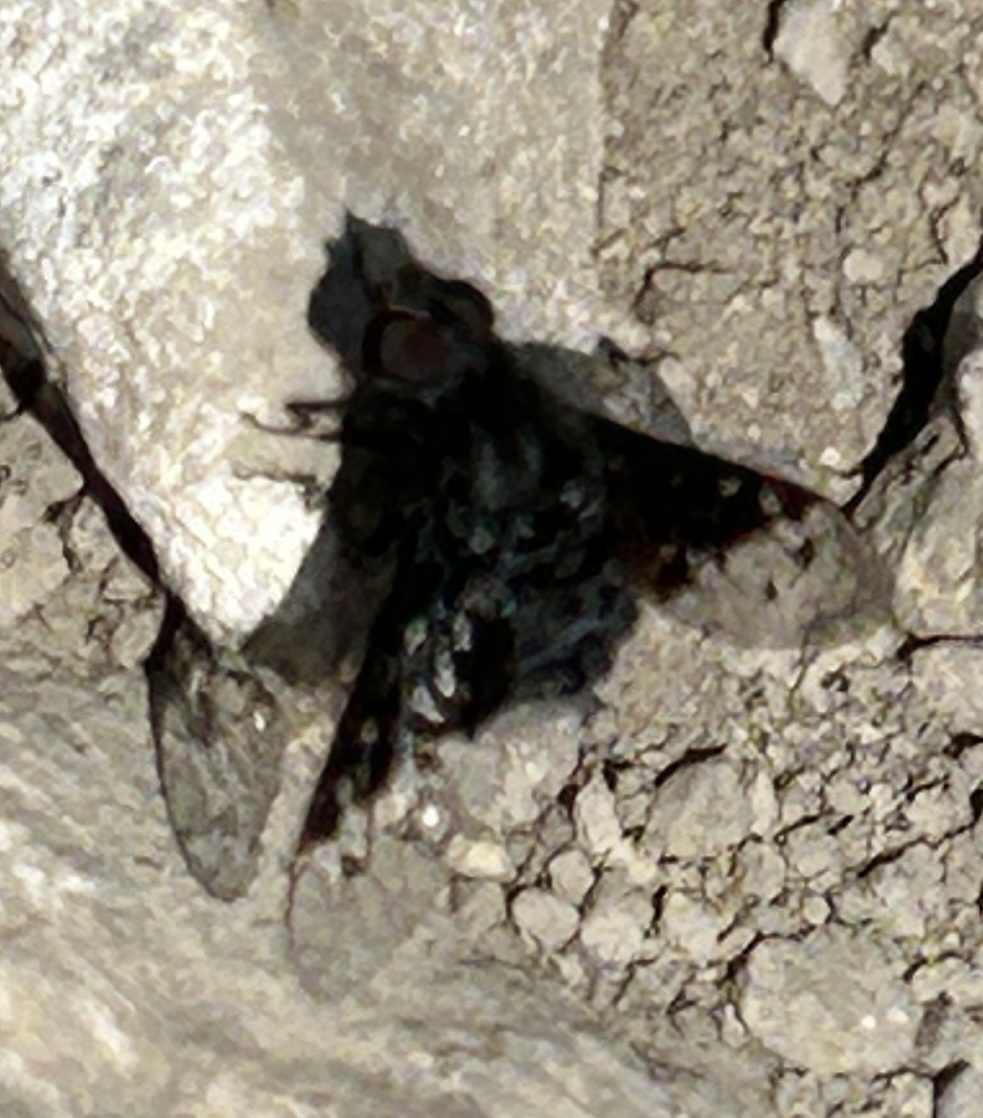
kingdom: Animalia
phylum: Arthropoda
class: Insecta
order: Diptera
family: Bombyliidae
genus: Anthrax
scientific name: Anthrax anthrax
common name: Anthracite bee-fly
